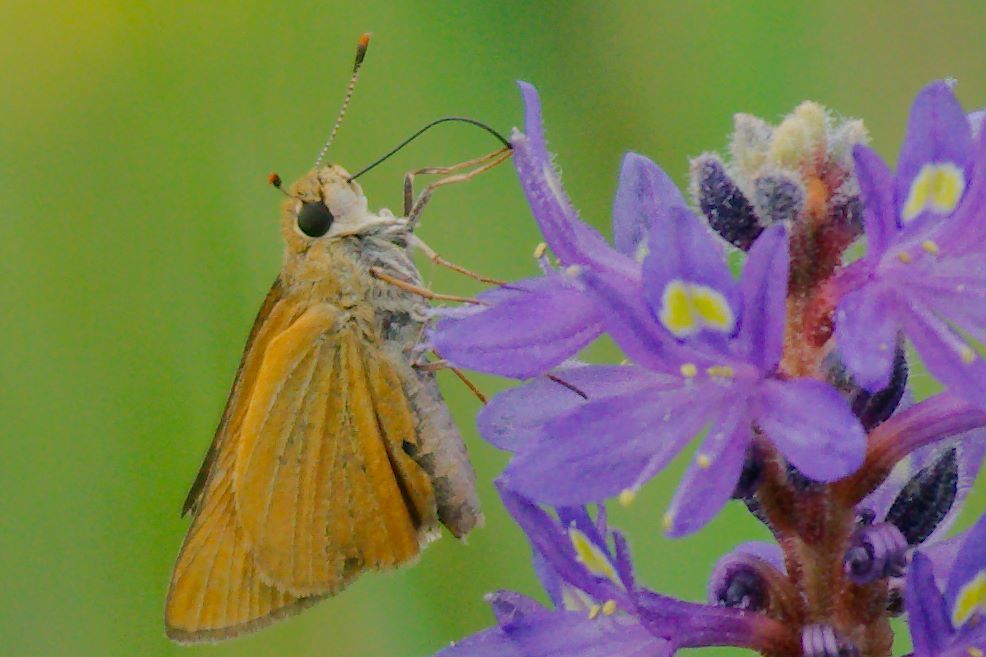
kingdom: Animalia
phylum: Arthropoda
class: Insecta
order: Lepidoptera
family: Hesperiidae
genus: Atrytone
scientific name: Atrytone delaware
